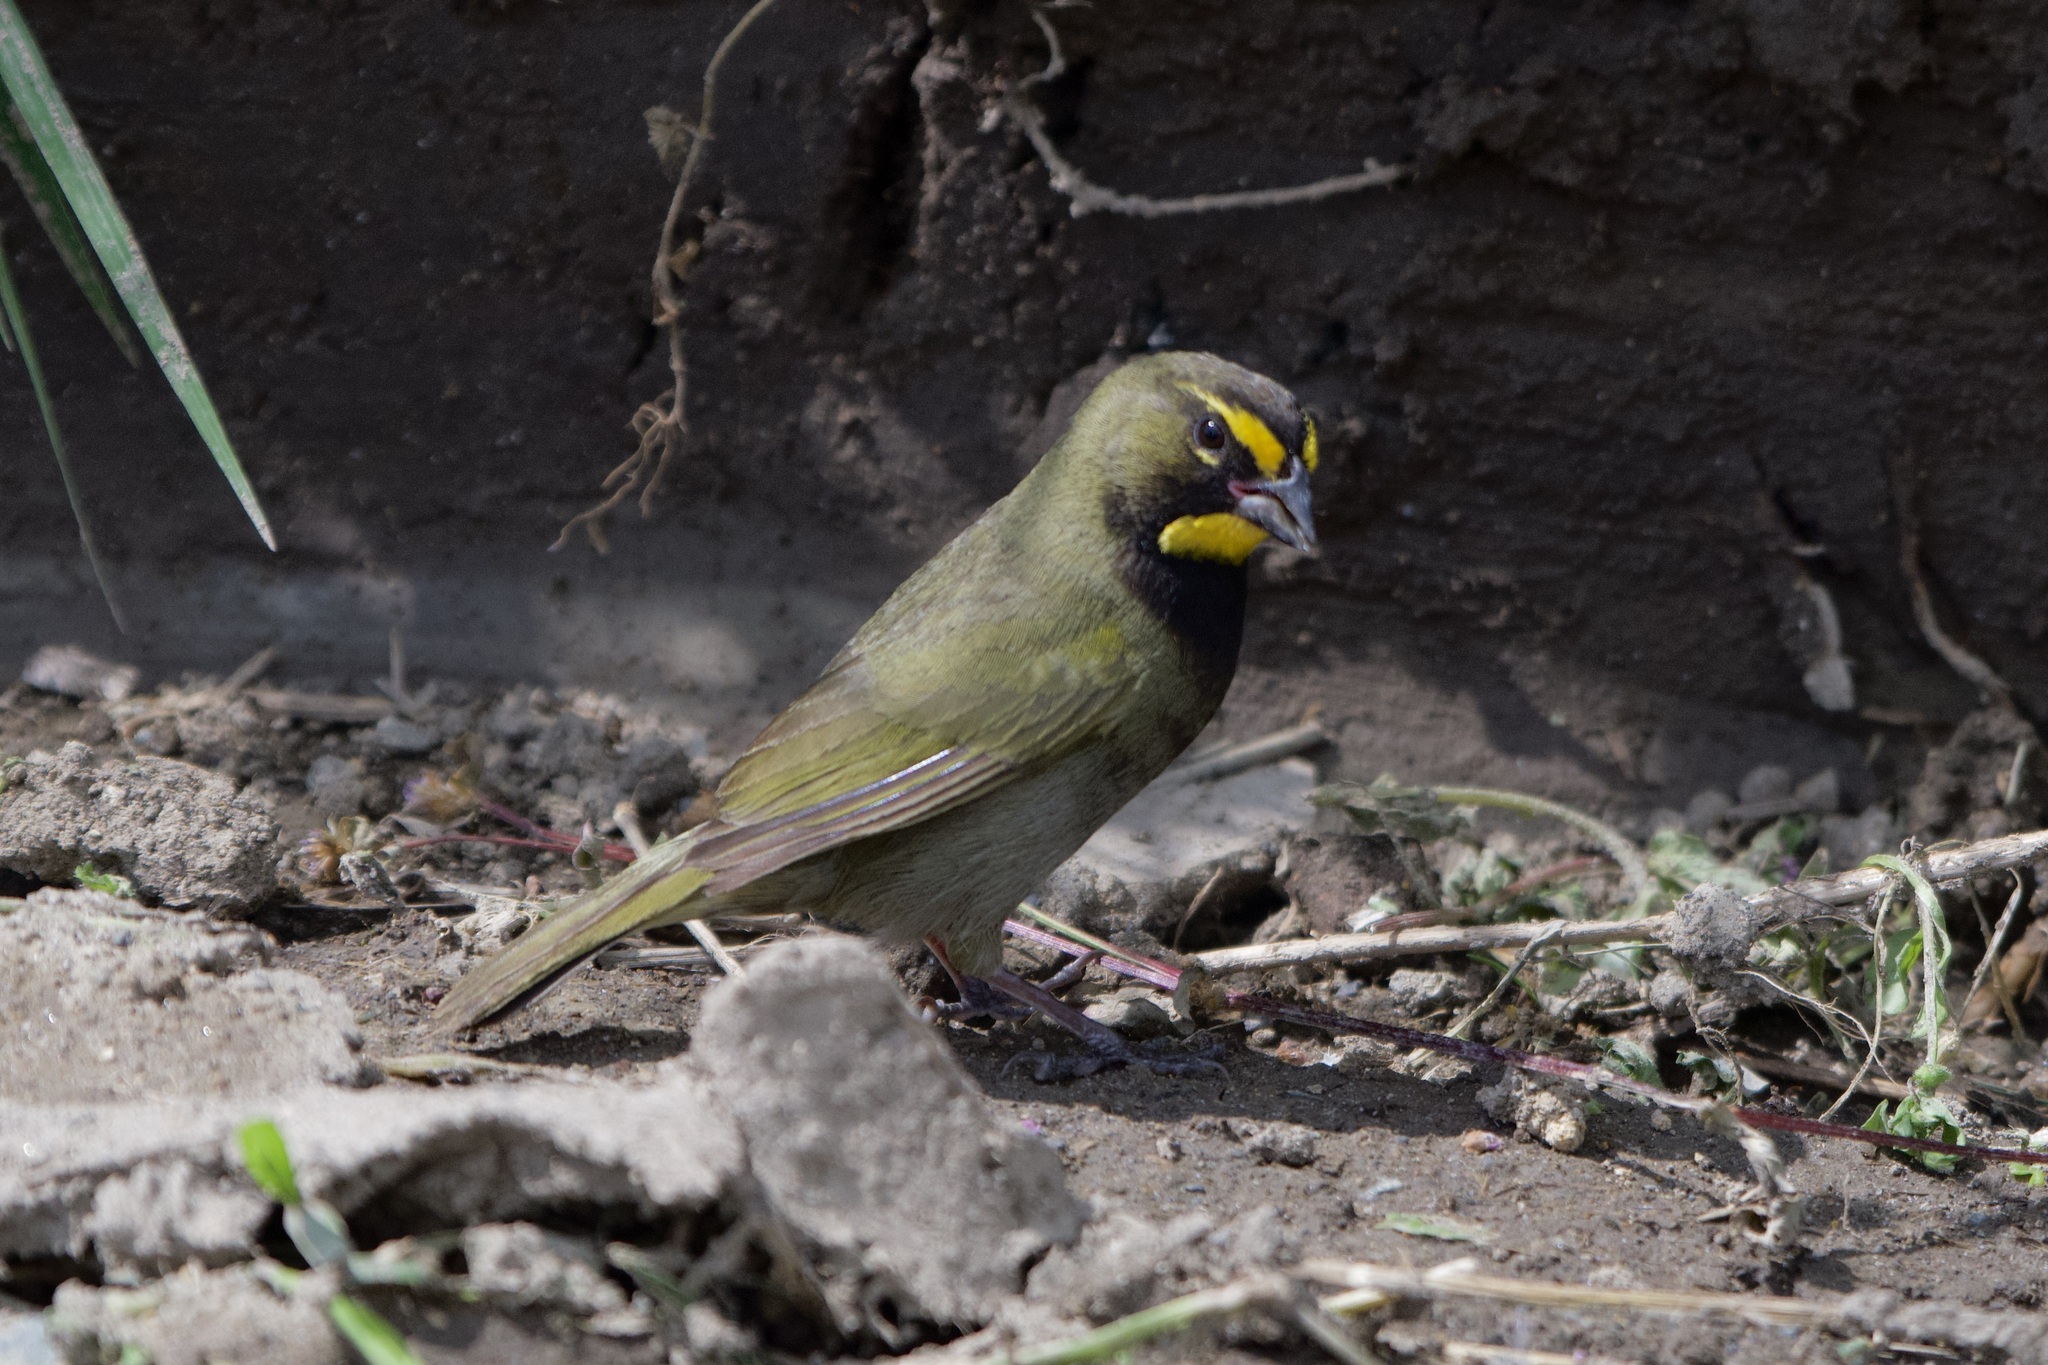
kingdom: Animalia
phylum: Chordata
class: Aves
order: Passeriformes
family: Thraupidae
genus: Tiaris
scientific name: Tiaris olivaceus
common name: Yellow-faced grassquit
